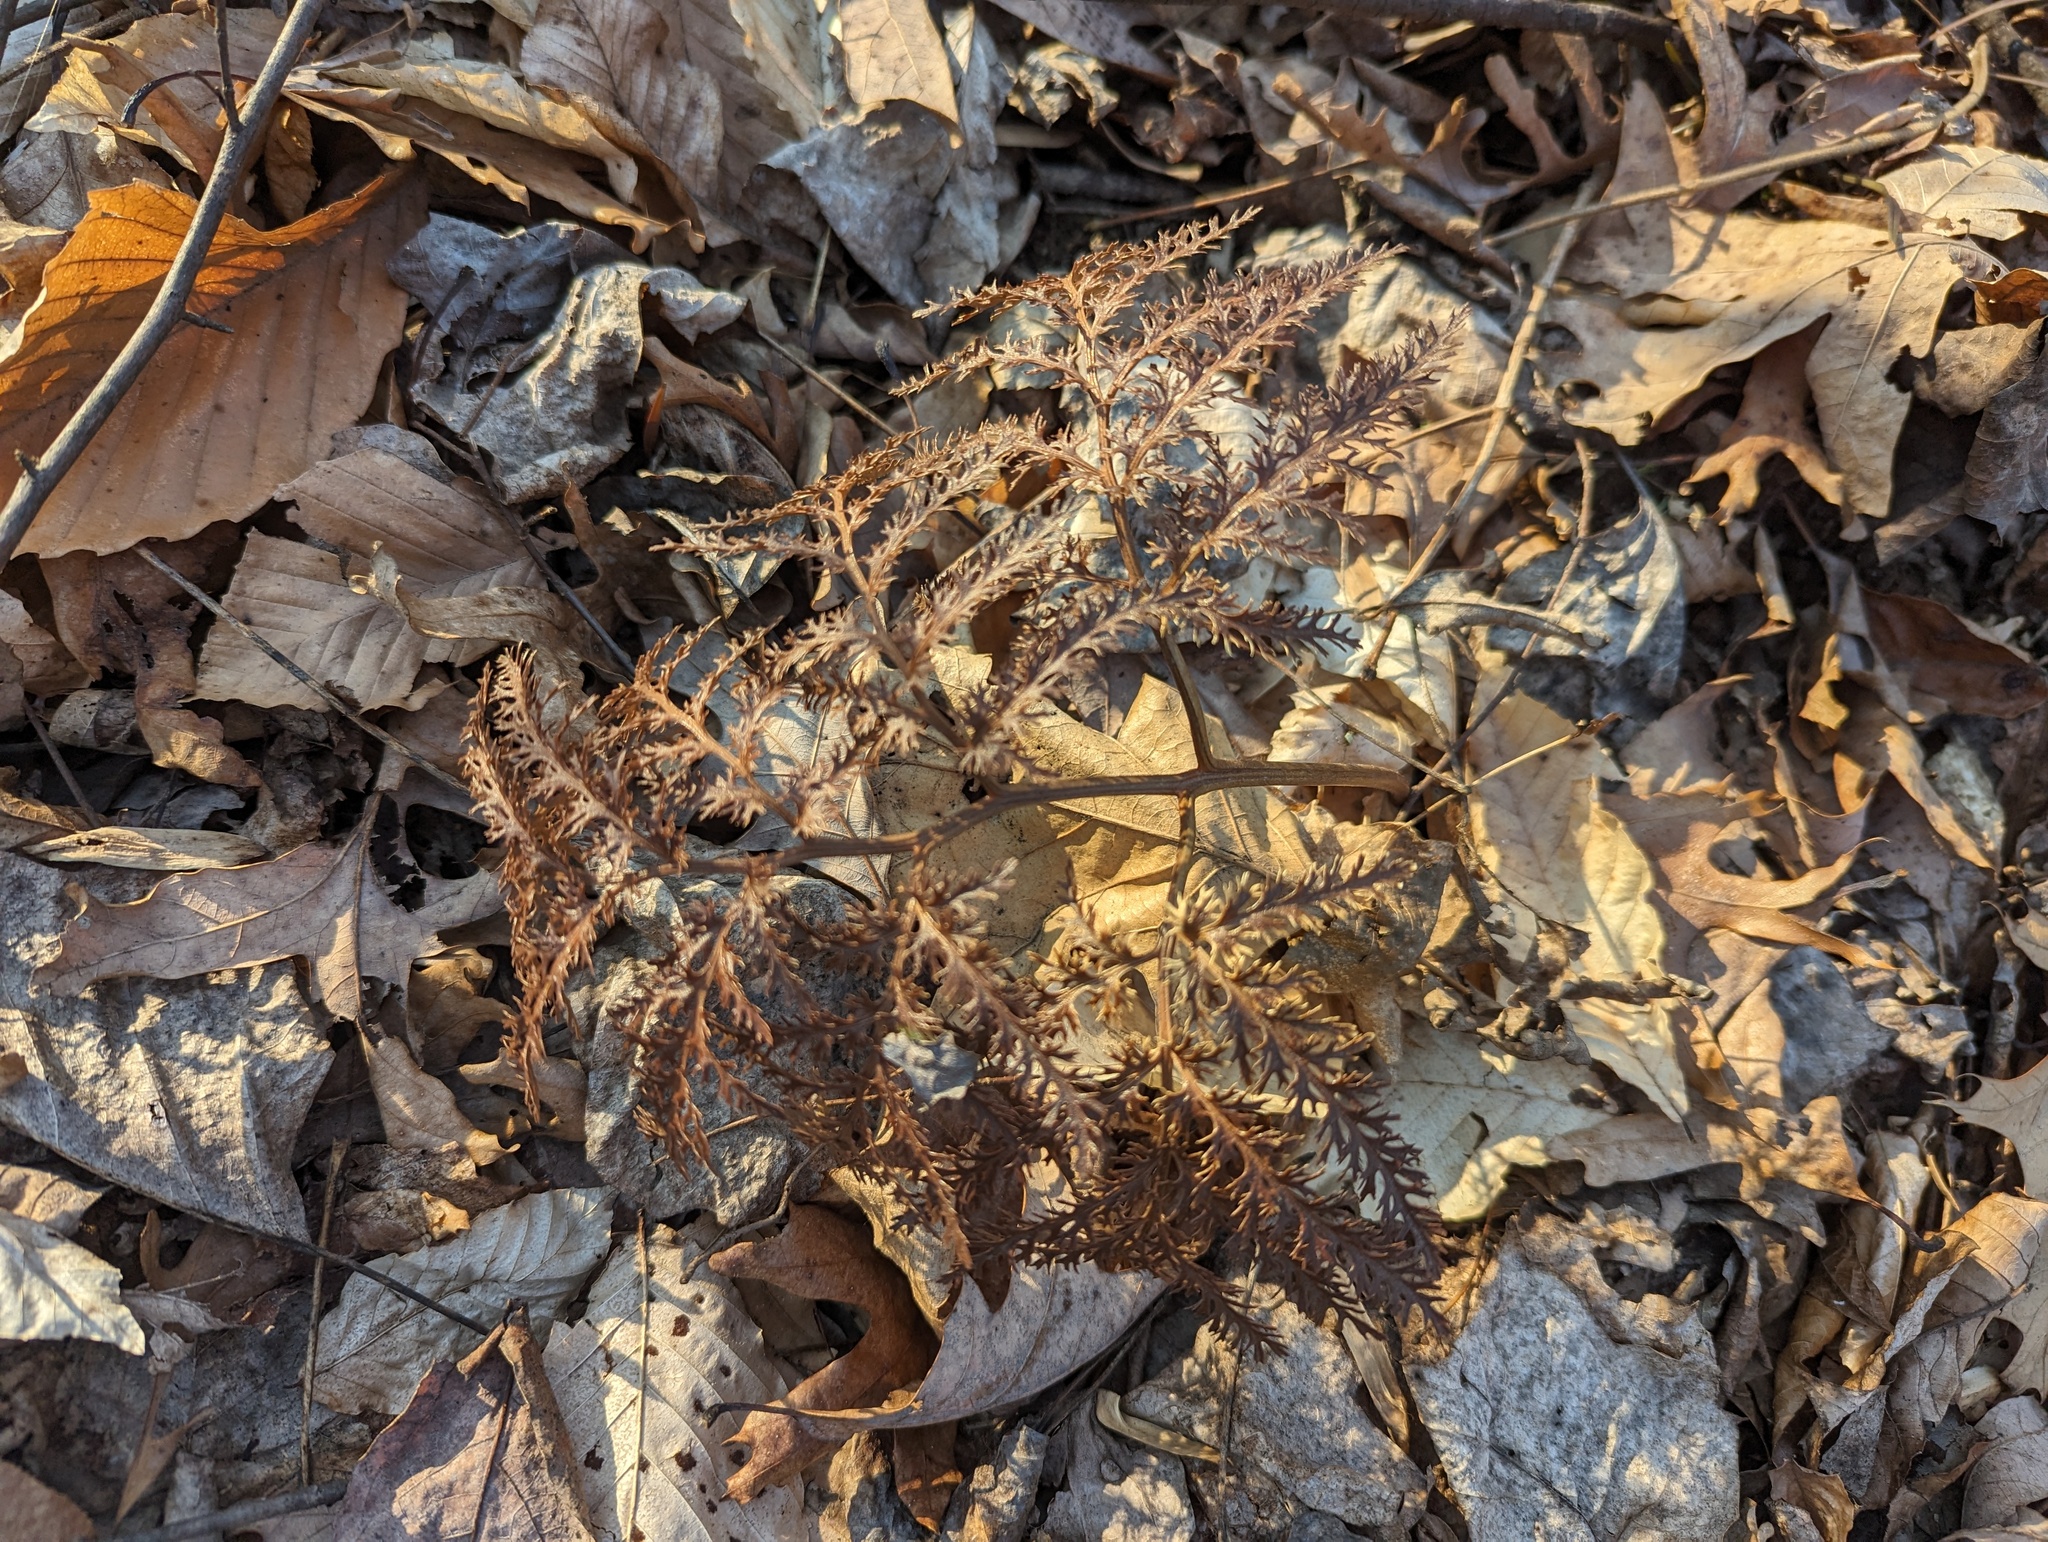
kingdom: Plantae
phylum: Tracheophyta
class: Polypodiopsida
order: Ophioglossales
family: Ophioglossaceae
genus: Sceptridium
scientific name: Sceptridium dissectum
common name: Cut-leaved grapefern
